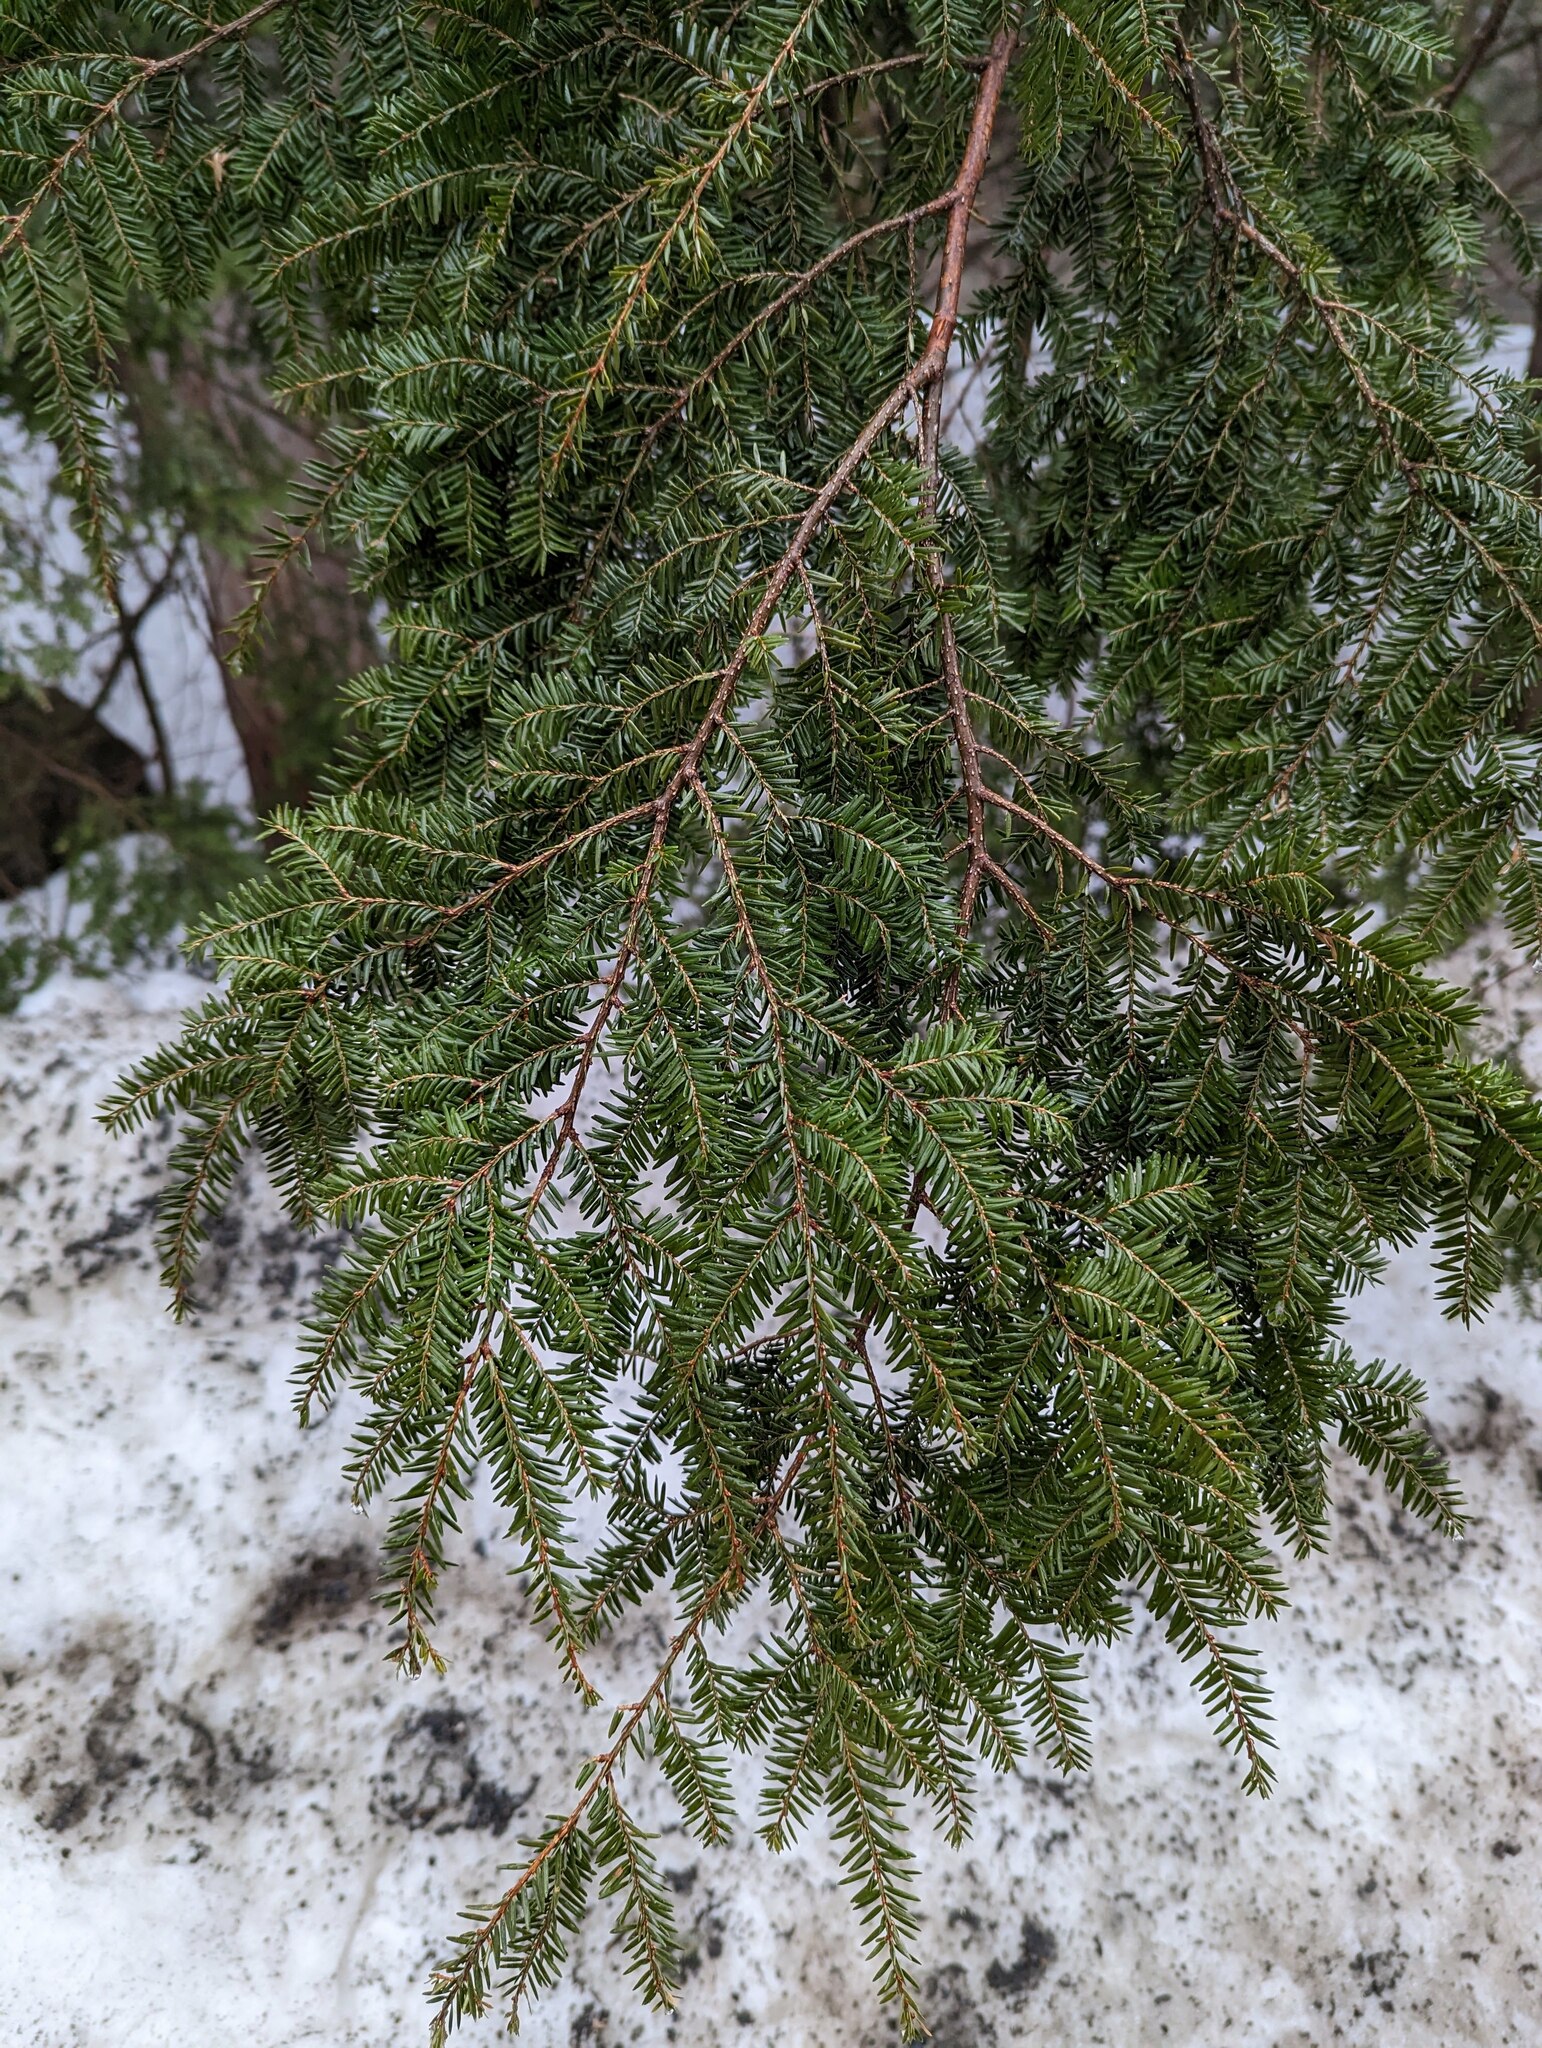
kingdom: Plantae
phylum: Tracheophyta
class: Pinopsida
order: Pinales
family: Pinaceae
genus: Tsuga
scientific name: Tsuga canadensis
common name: Eastern hemlock
